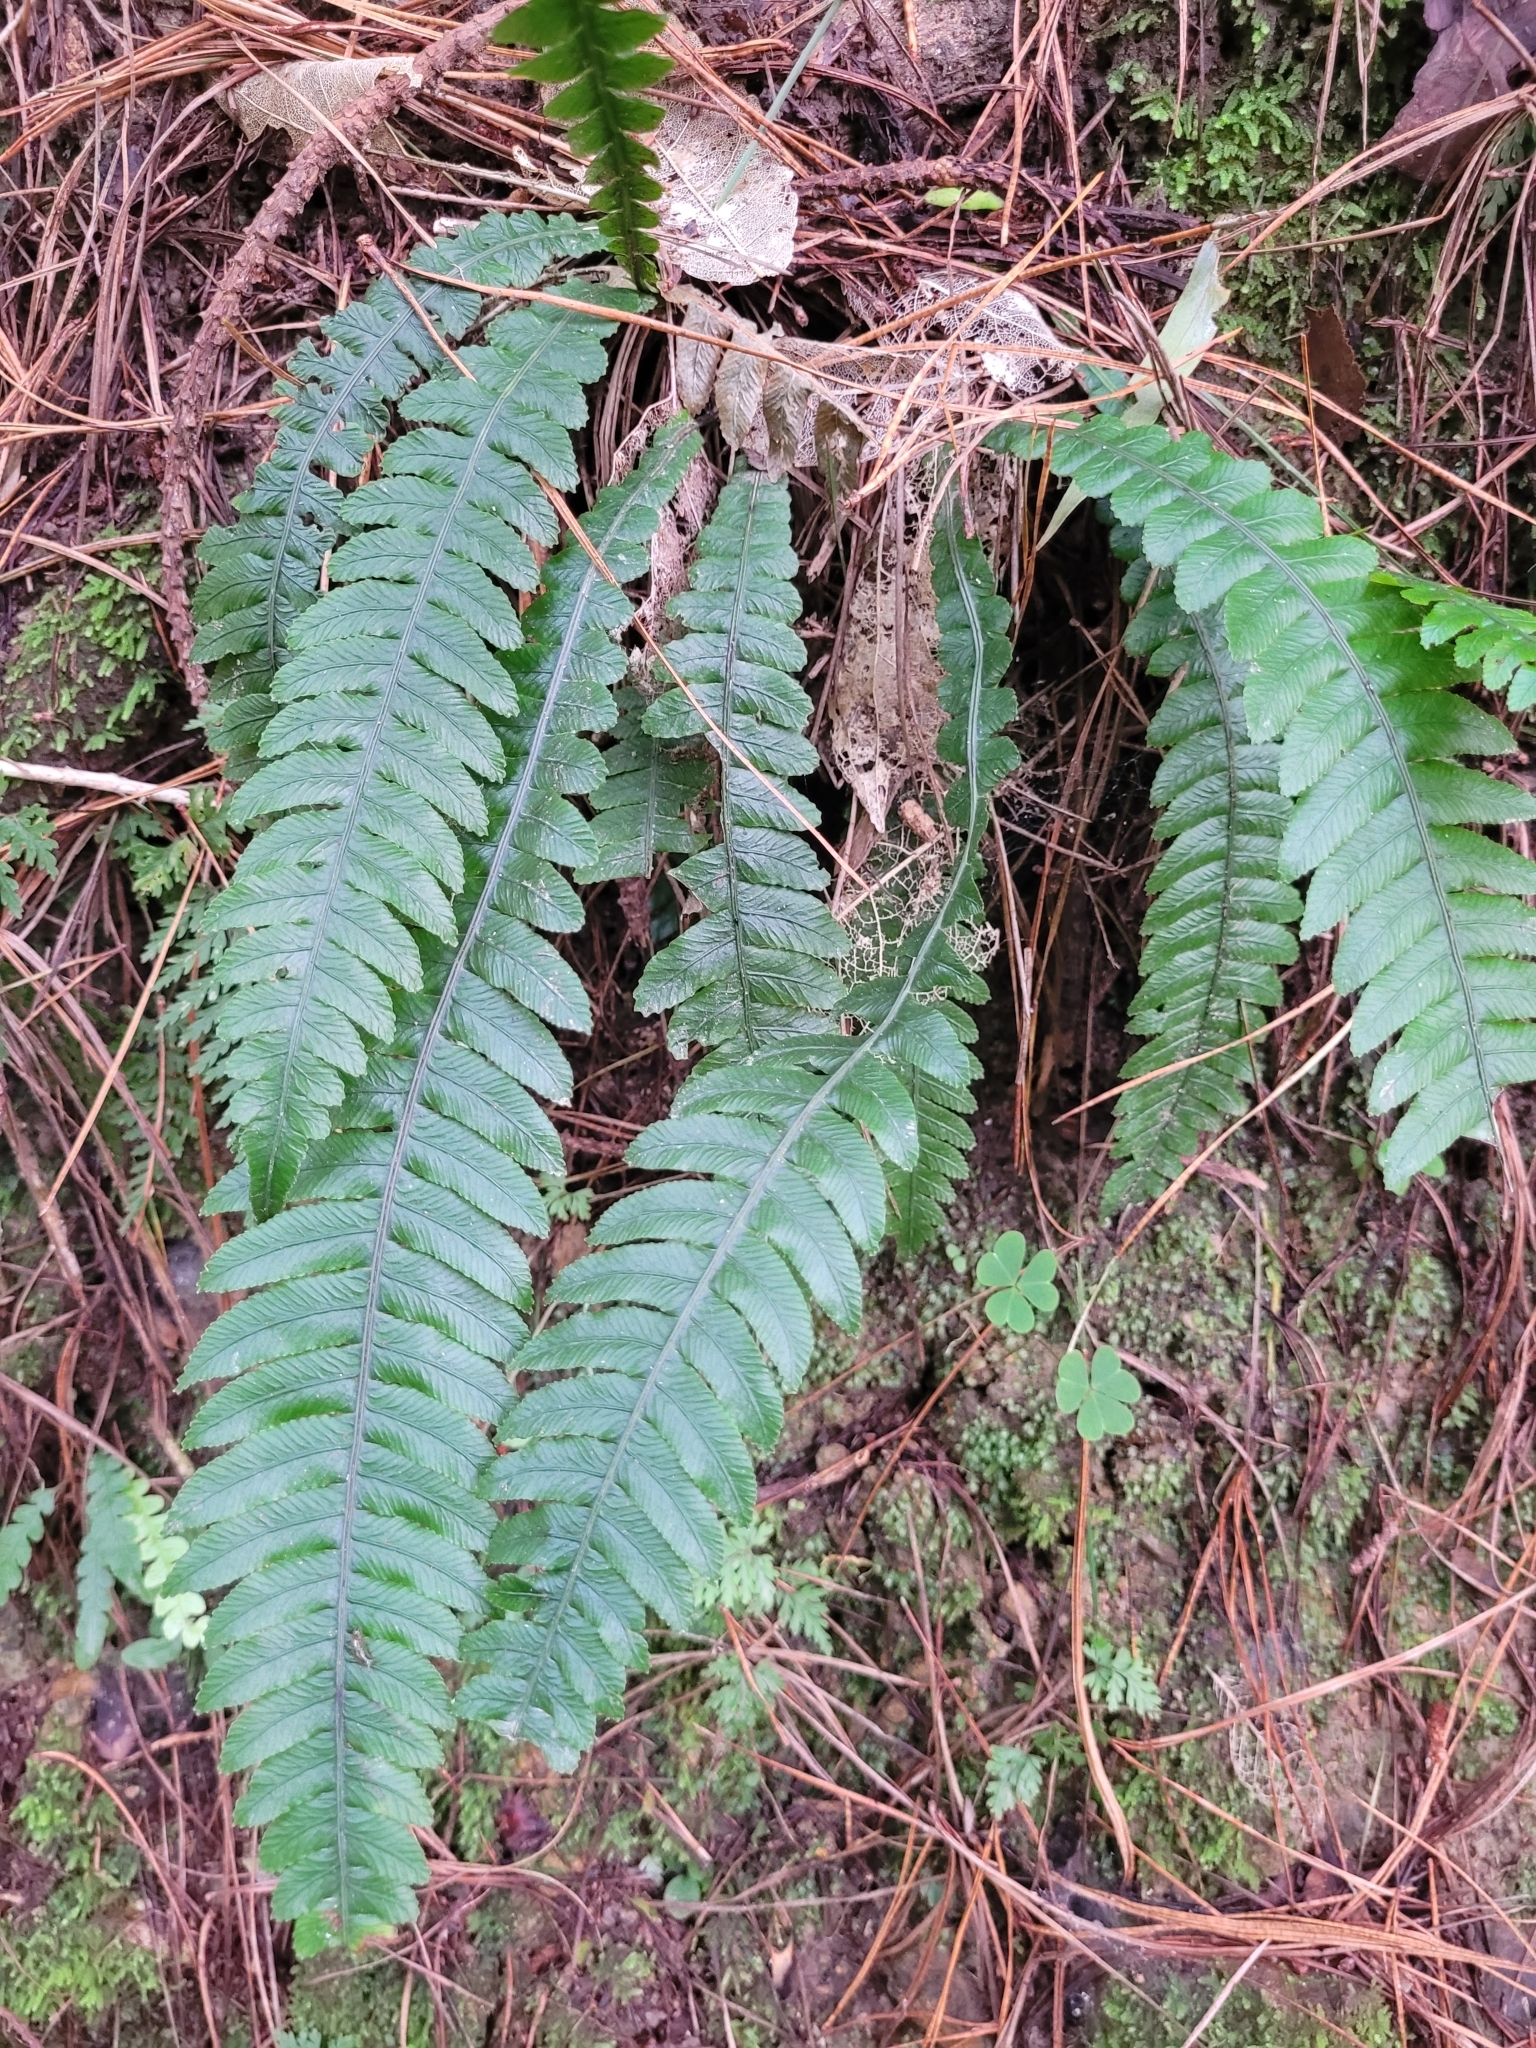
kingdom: Plantae
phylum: Tracheophyta
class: Polypodiopsida
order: Polypodiales
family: Blechnaceae
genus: Austroblechnum
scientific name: Austroblechnum lanceolatum
